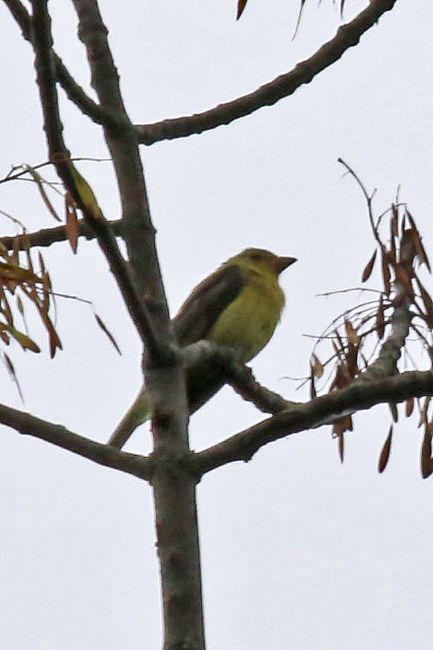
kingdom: Animalia
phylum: Chordata
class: Aves
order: Passeriformes
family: Cardinalidae
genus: Piranga
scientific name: Piranga olivacea
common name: Scarlet tanager
